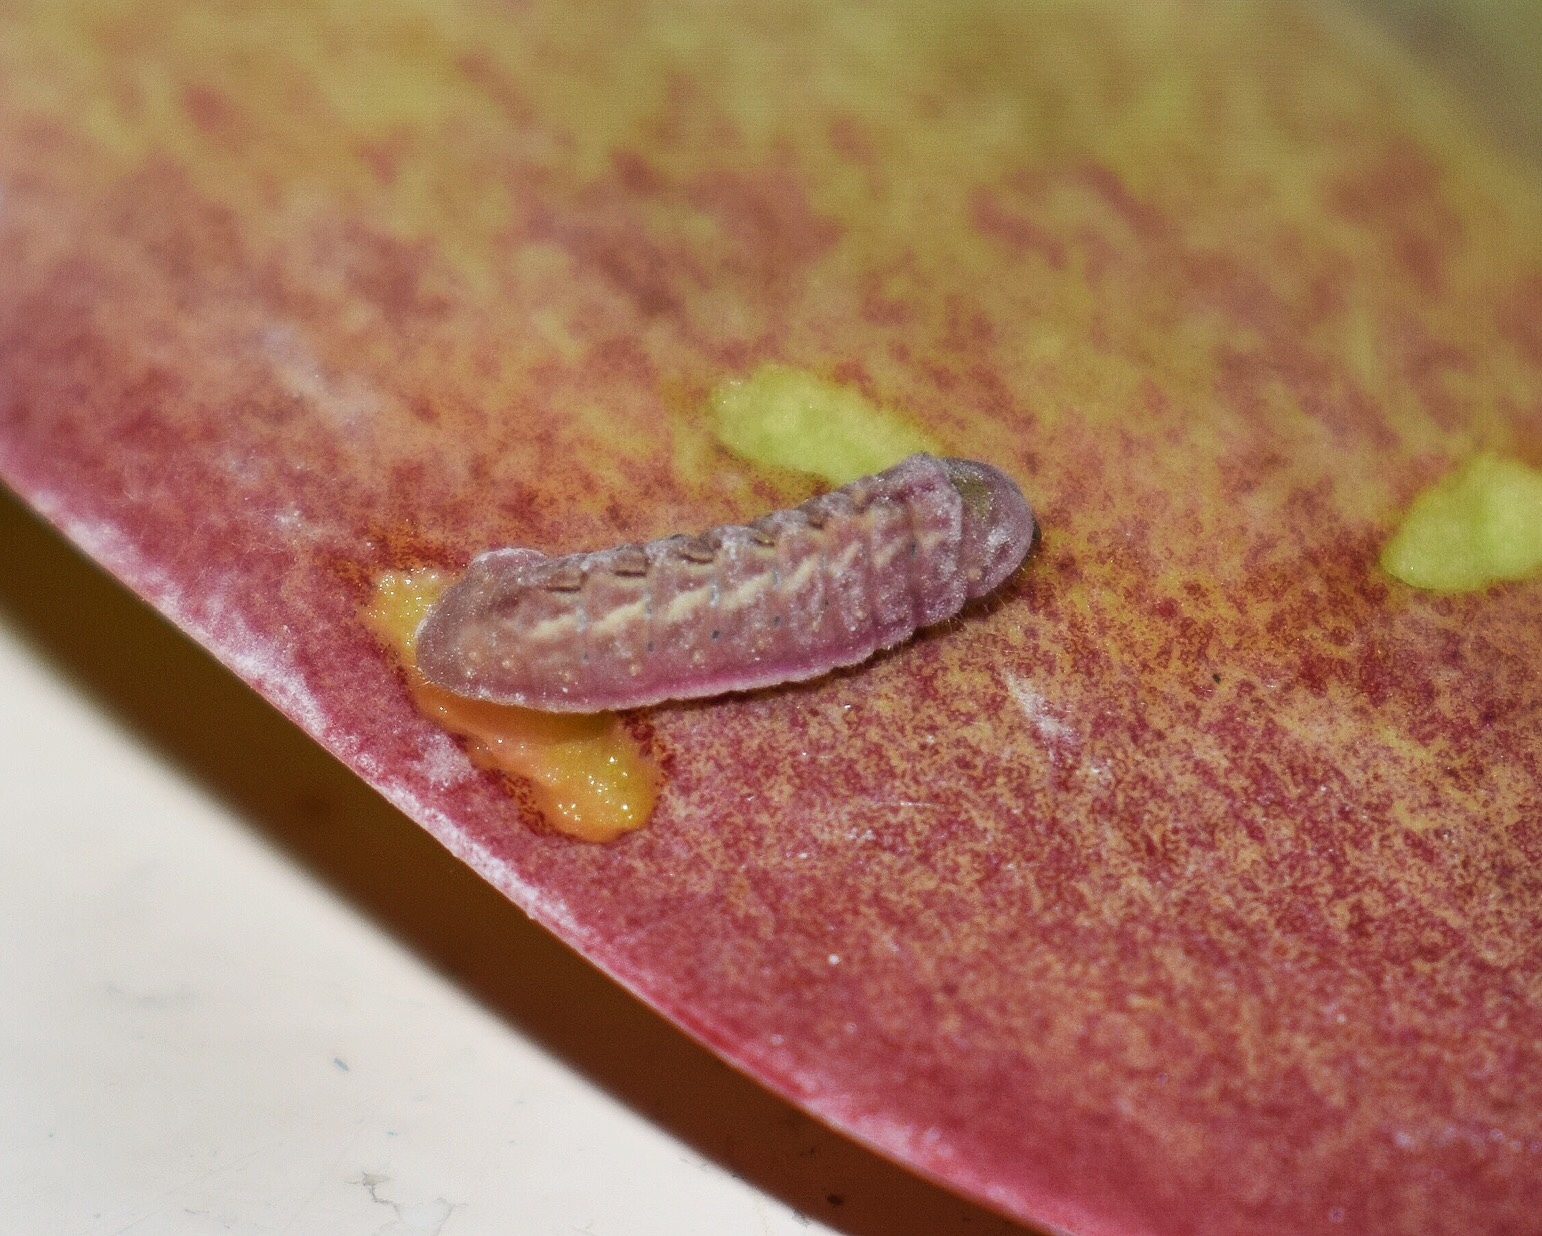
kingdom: Animalia
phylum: Arthropoda
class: Insecta
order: Lepidoptera
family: Lycaenidae
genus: Anthene
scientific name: Anthene livida
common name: Pale hairtail
